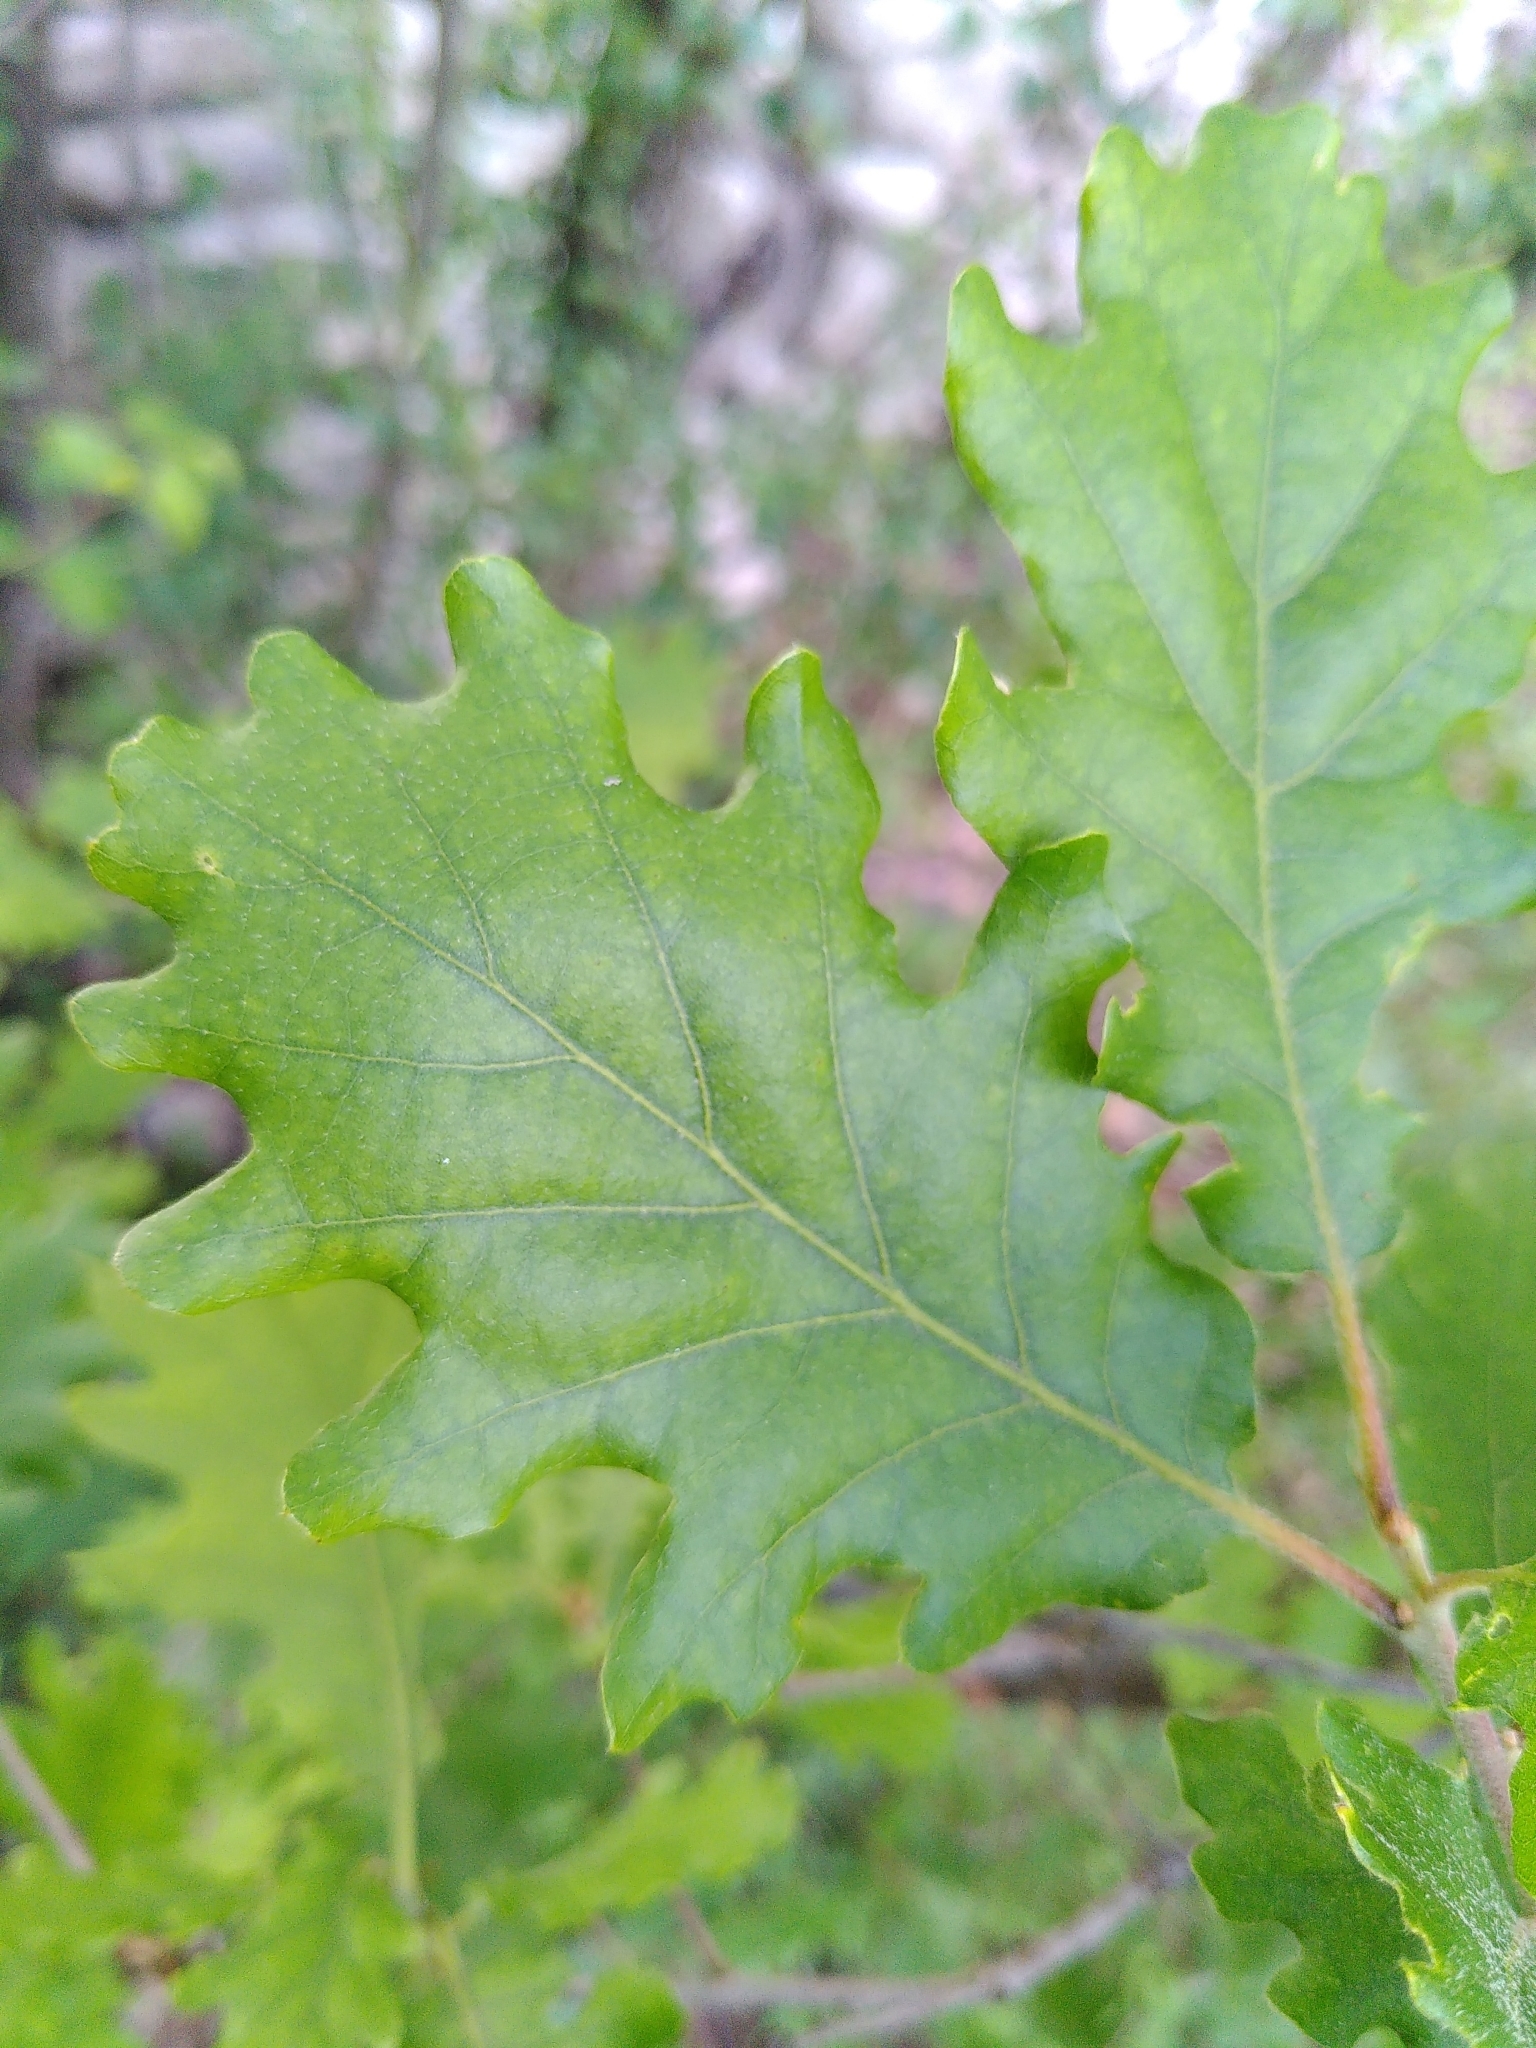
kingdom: Plantae
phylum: Tracheophyta
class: Magnoliopsida
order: Fagales
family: Fagaceae
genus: Quercus
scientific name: Quercus pubescens
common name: Downy oak
